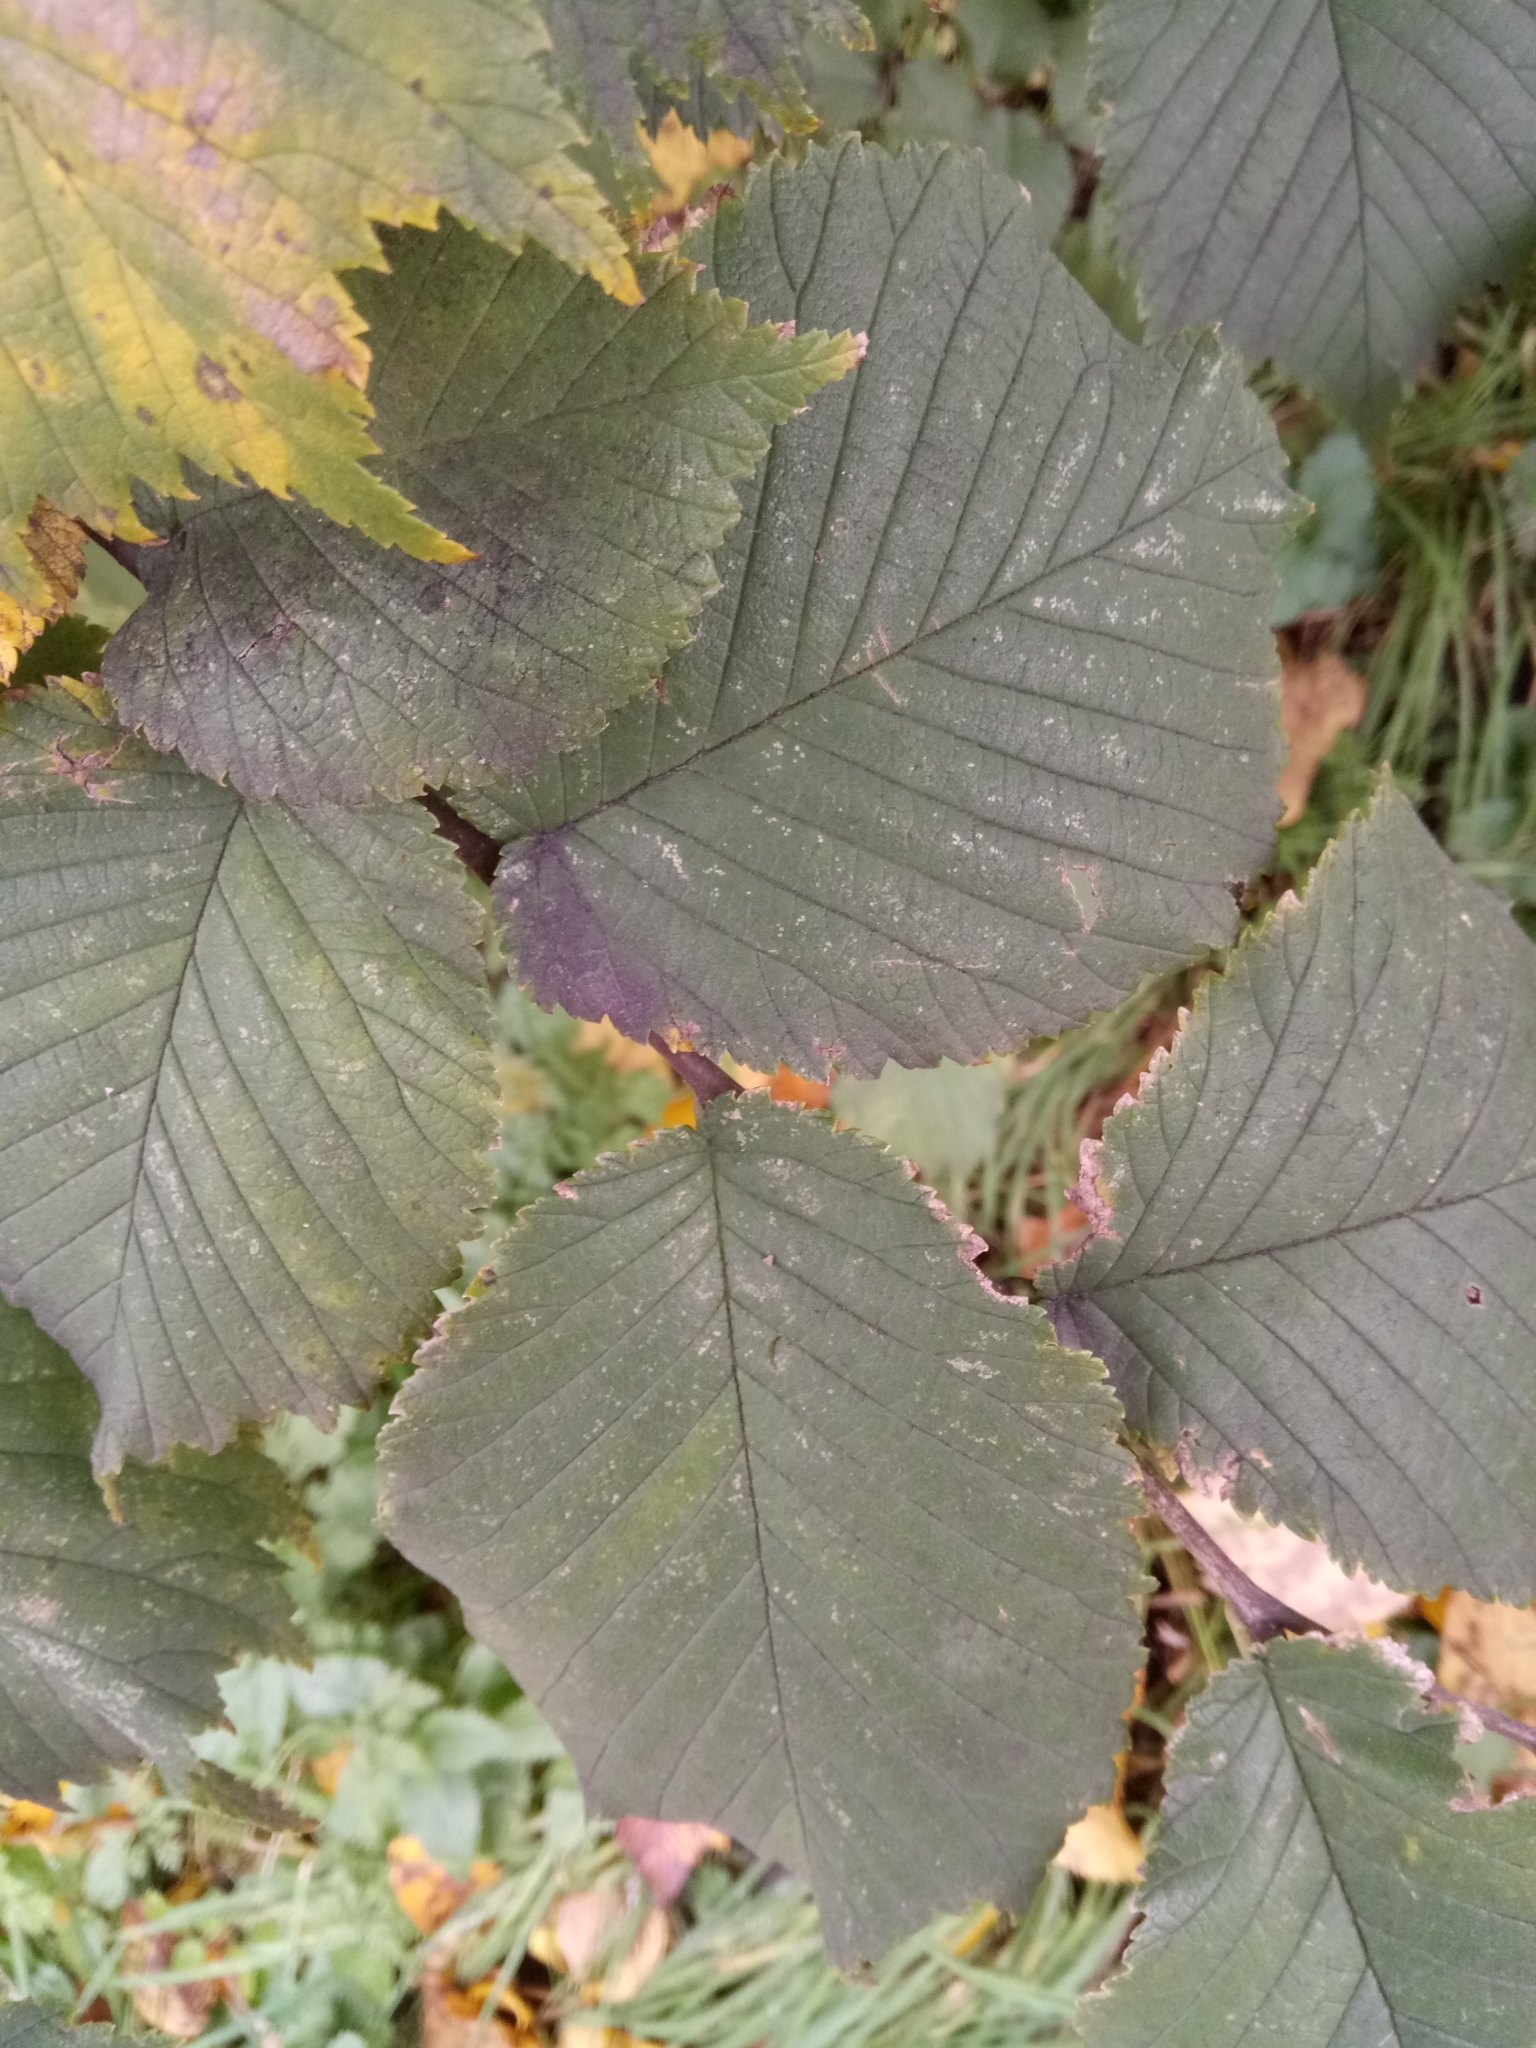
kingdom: Plantae
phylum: Tracheophyta
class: Magnoliopsida
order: Rosales
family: Ulmaceae
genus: Ulmus
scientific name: Ulmus glabra
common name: Wych elm
